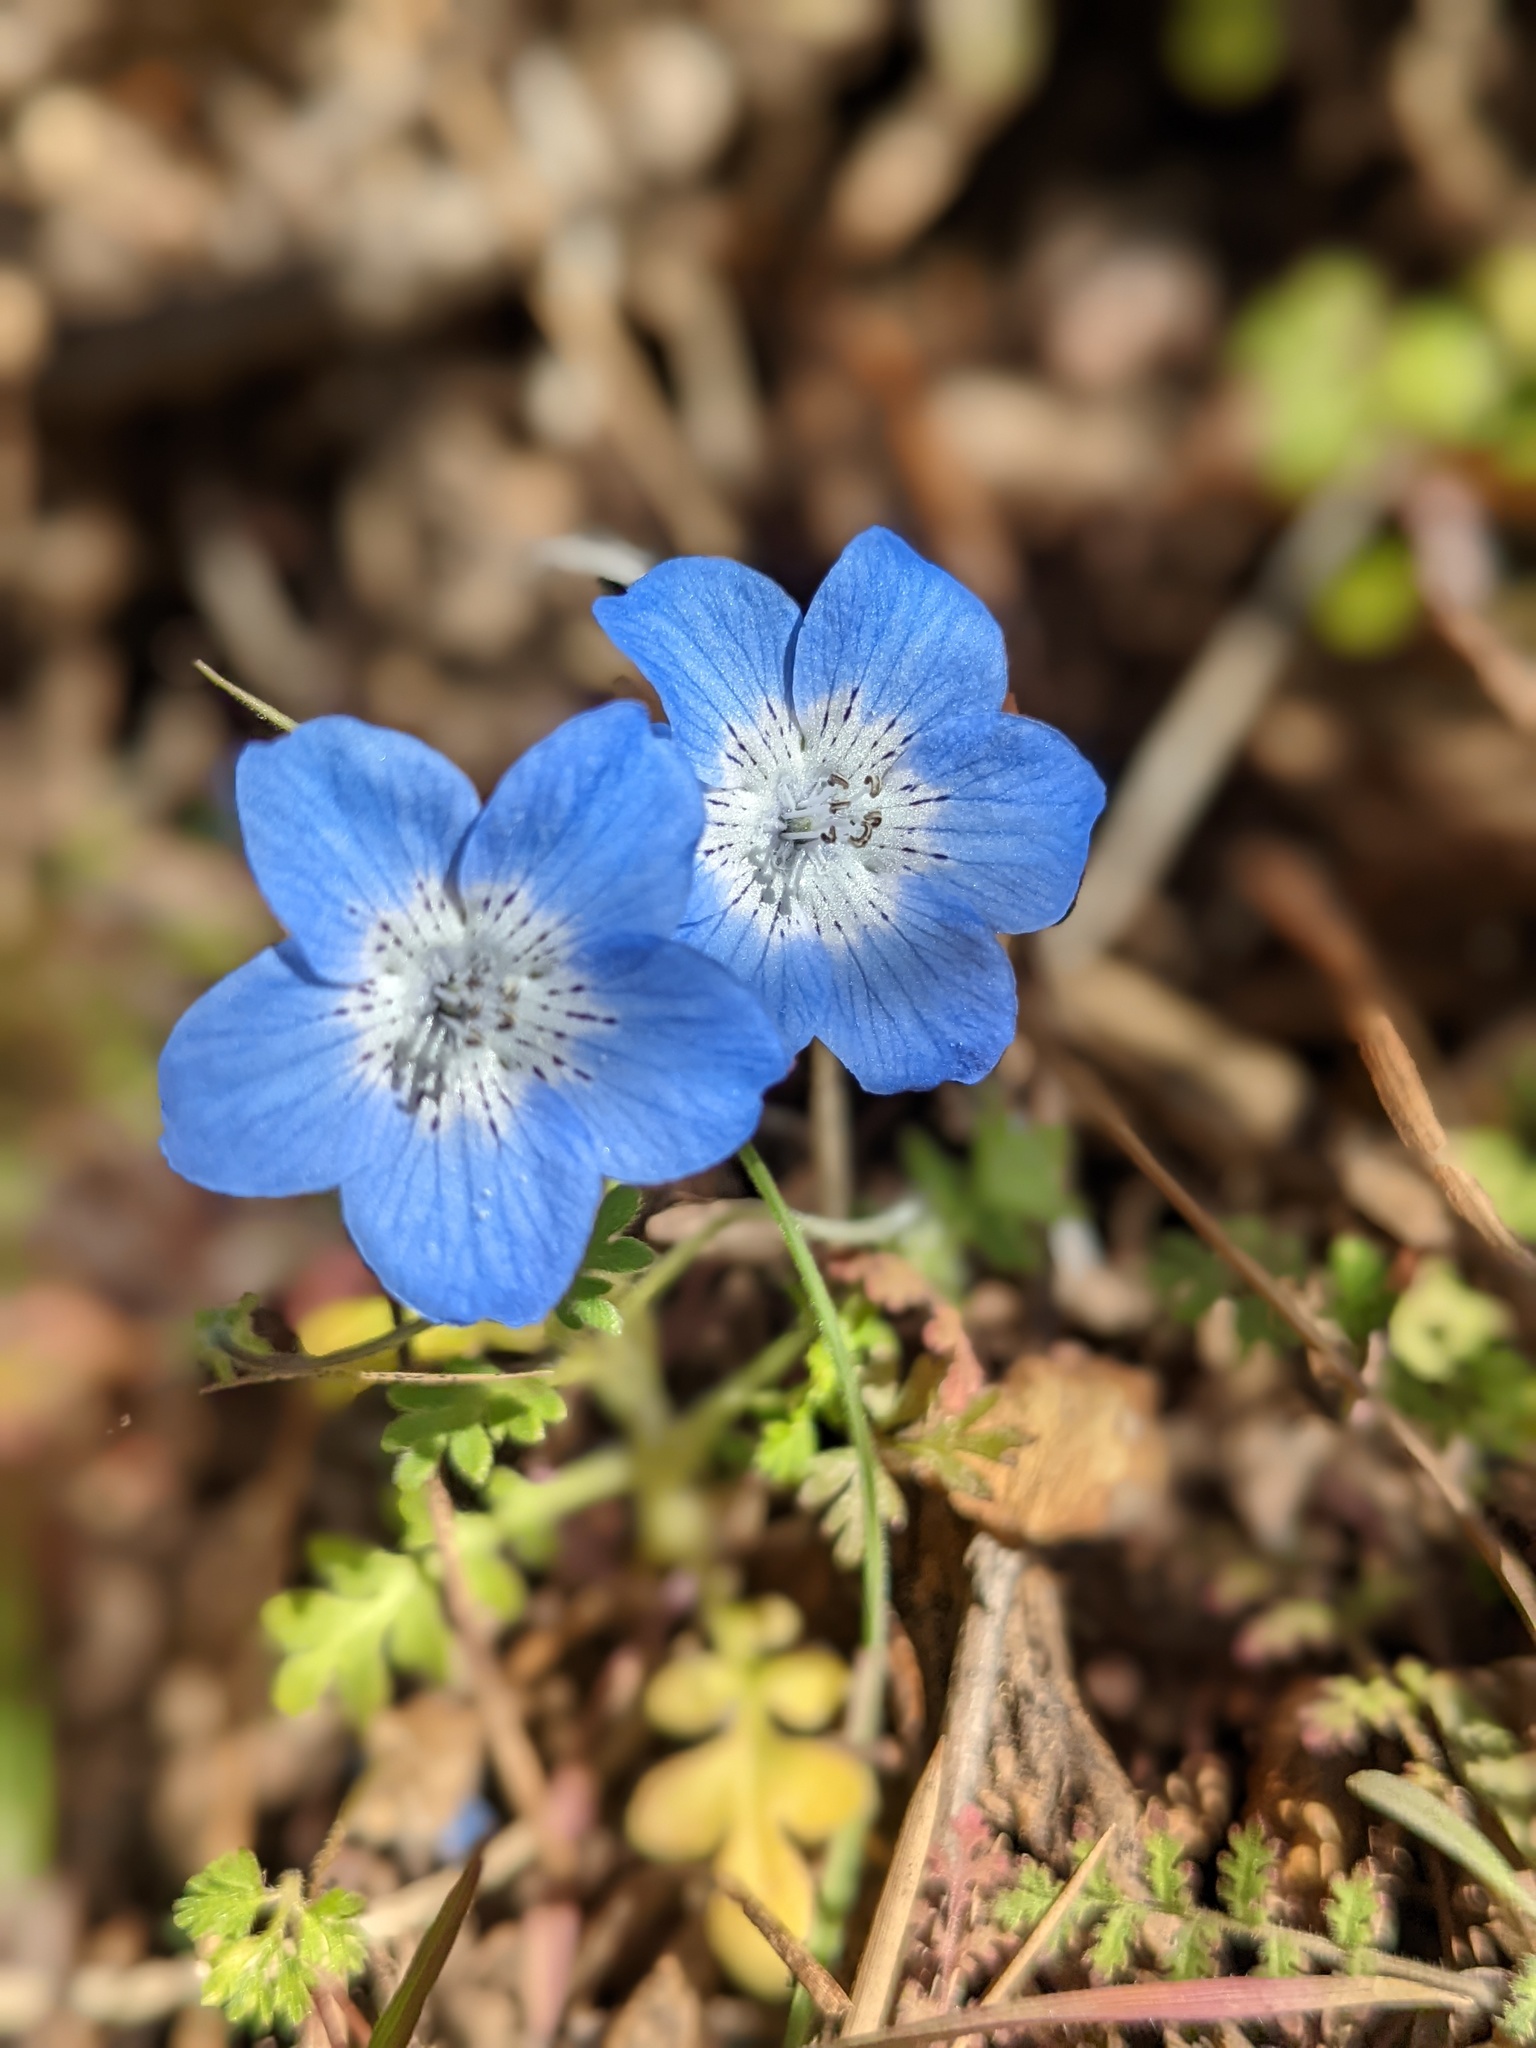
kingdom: Plantae
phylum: Tracheophyta
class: Magnoliopsida
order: Boraginales
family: Hydrophyllaceae
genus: Nemophila
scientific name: Nemophila menziesii
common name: Baby's-blue-eyes
